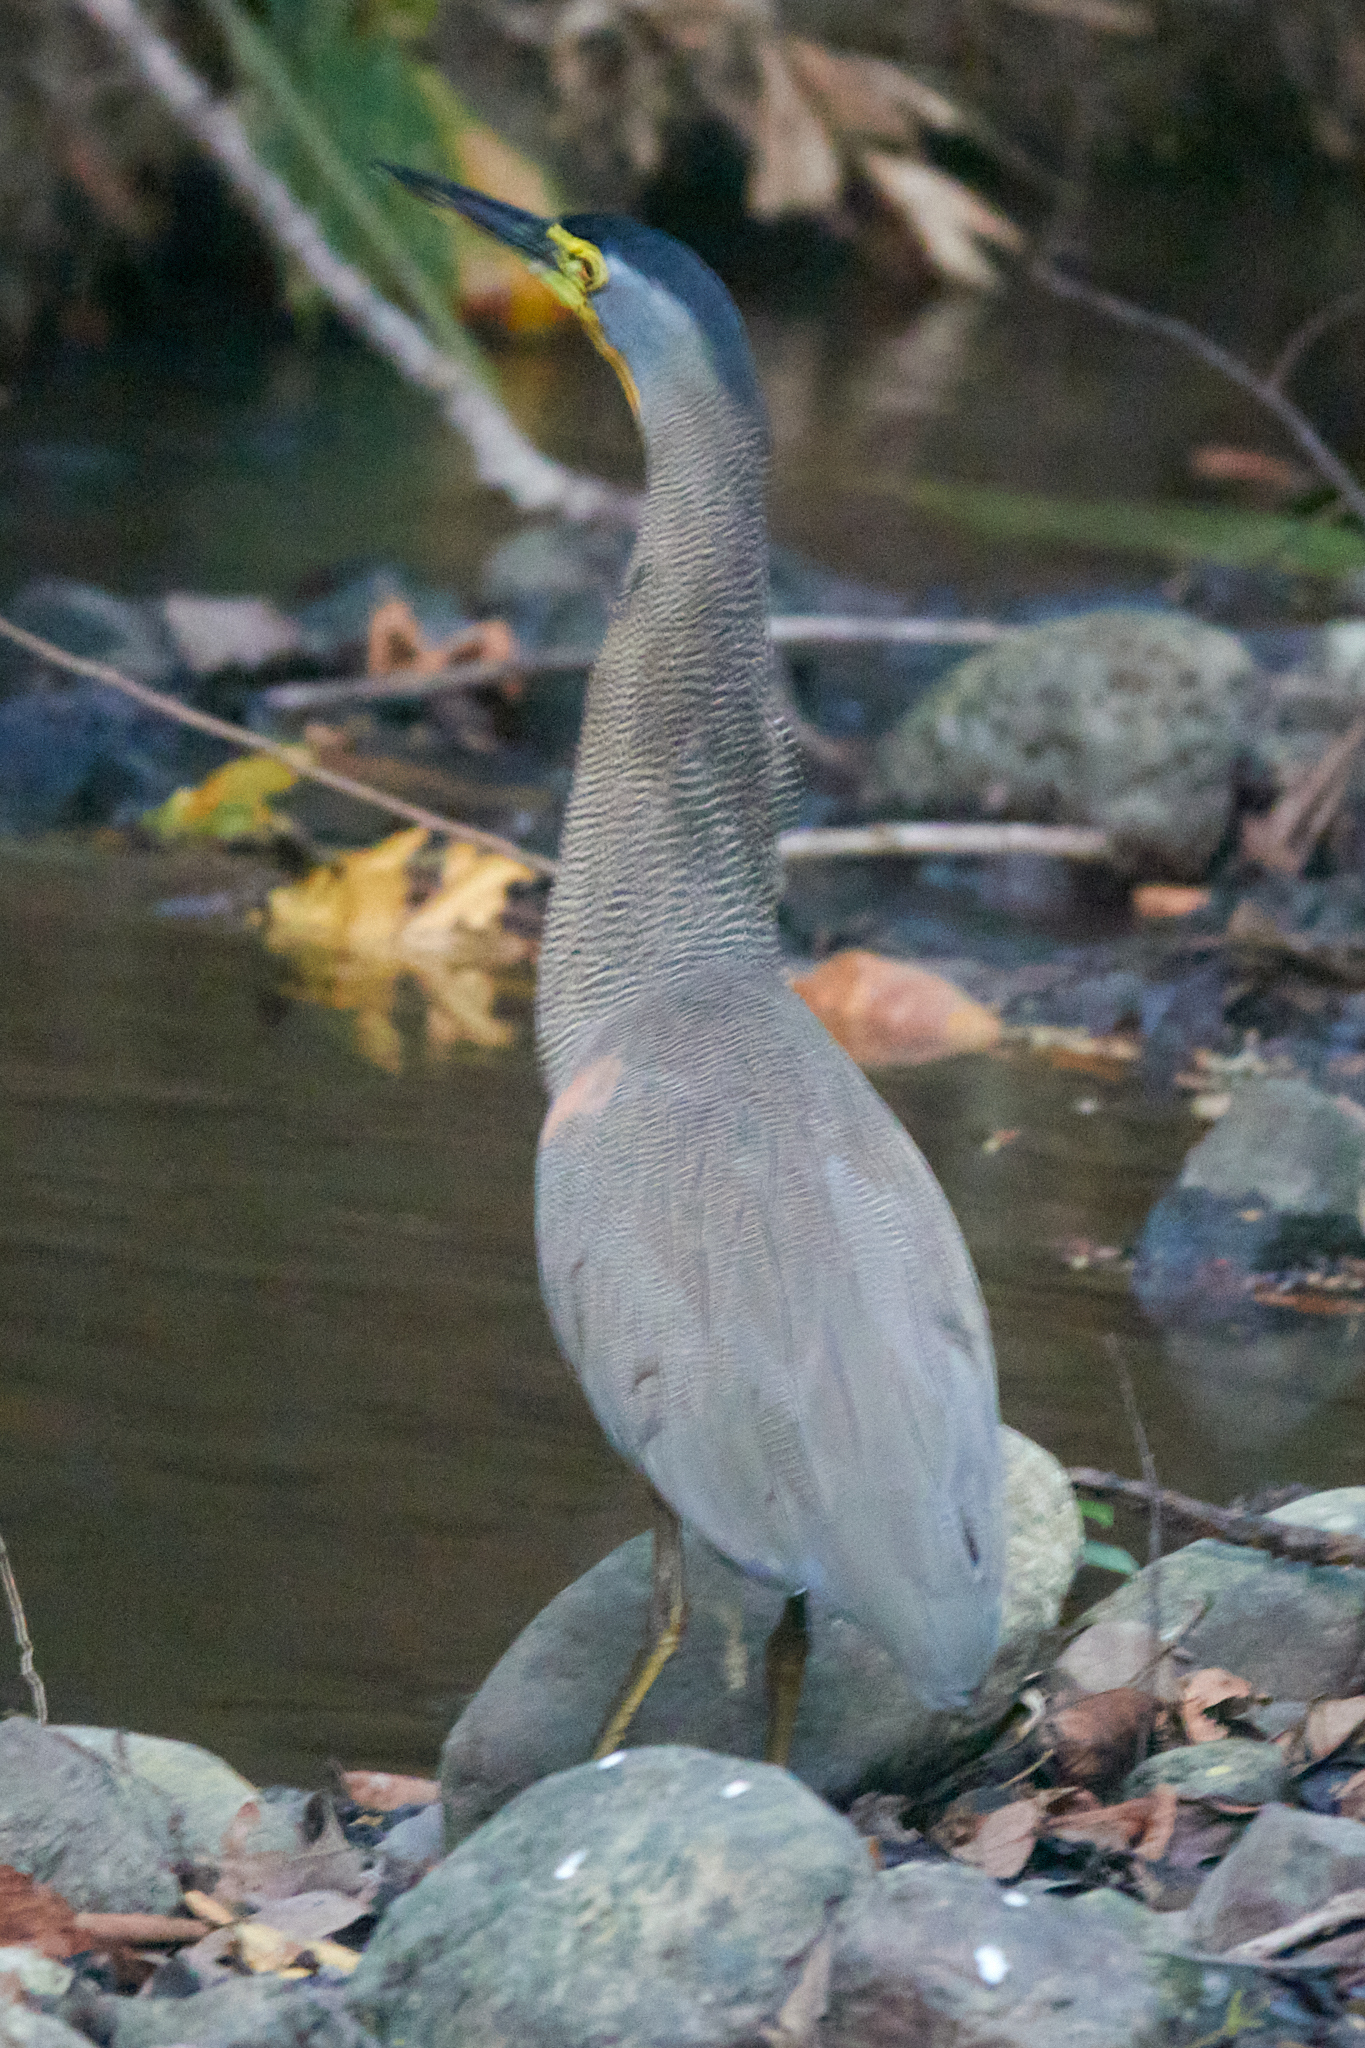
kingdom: Animalia
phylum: Chordata
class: Aves
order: Pelecaniformes
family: Ardeidae
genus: Tigrisoma
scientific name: Tigrisoma mexicanum
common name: Bare-throated tiger-heron
